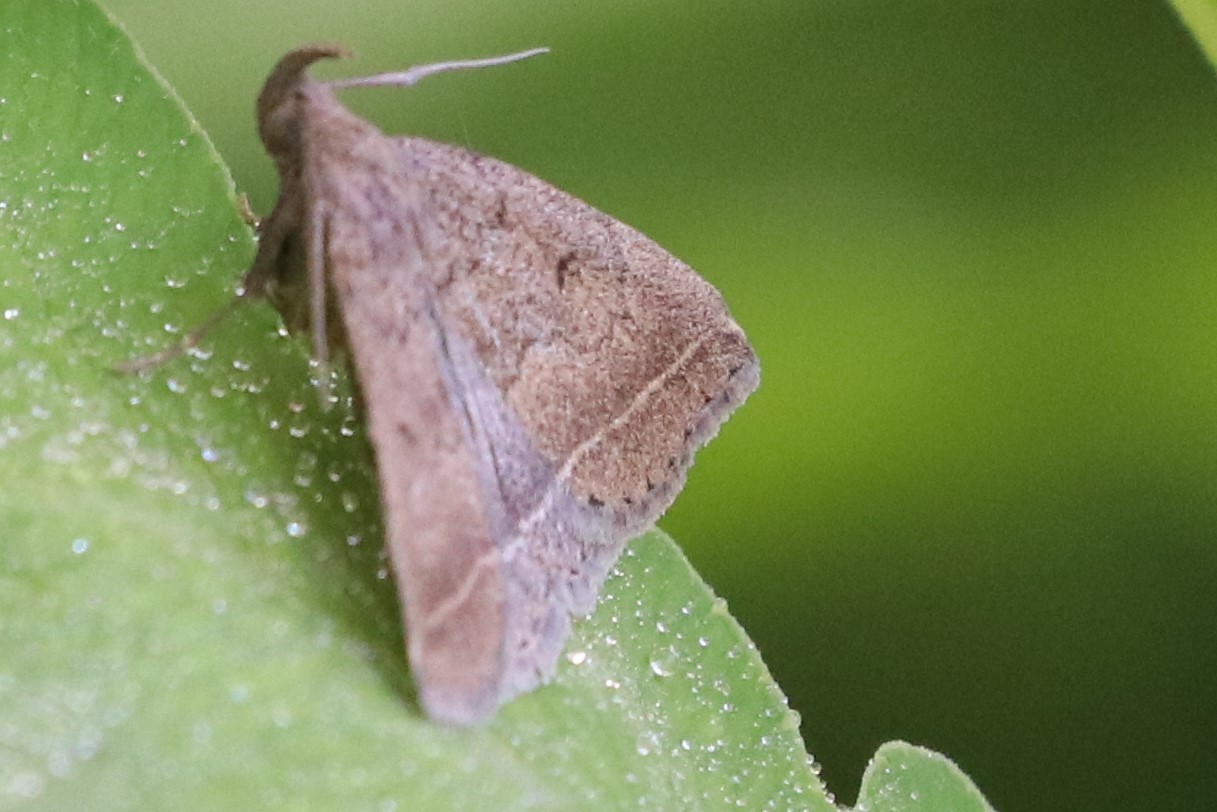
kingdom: Animalia
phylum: Arthropoda
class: Insecta
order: Lepidoptera
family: Erebidae
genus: Zanclognatha
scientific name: Zanclognatha jacchusalis
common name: Yellowish zanclognatha
